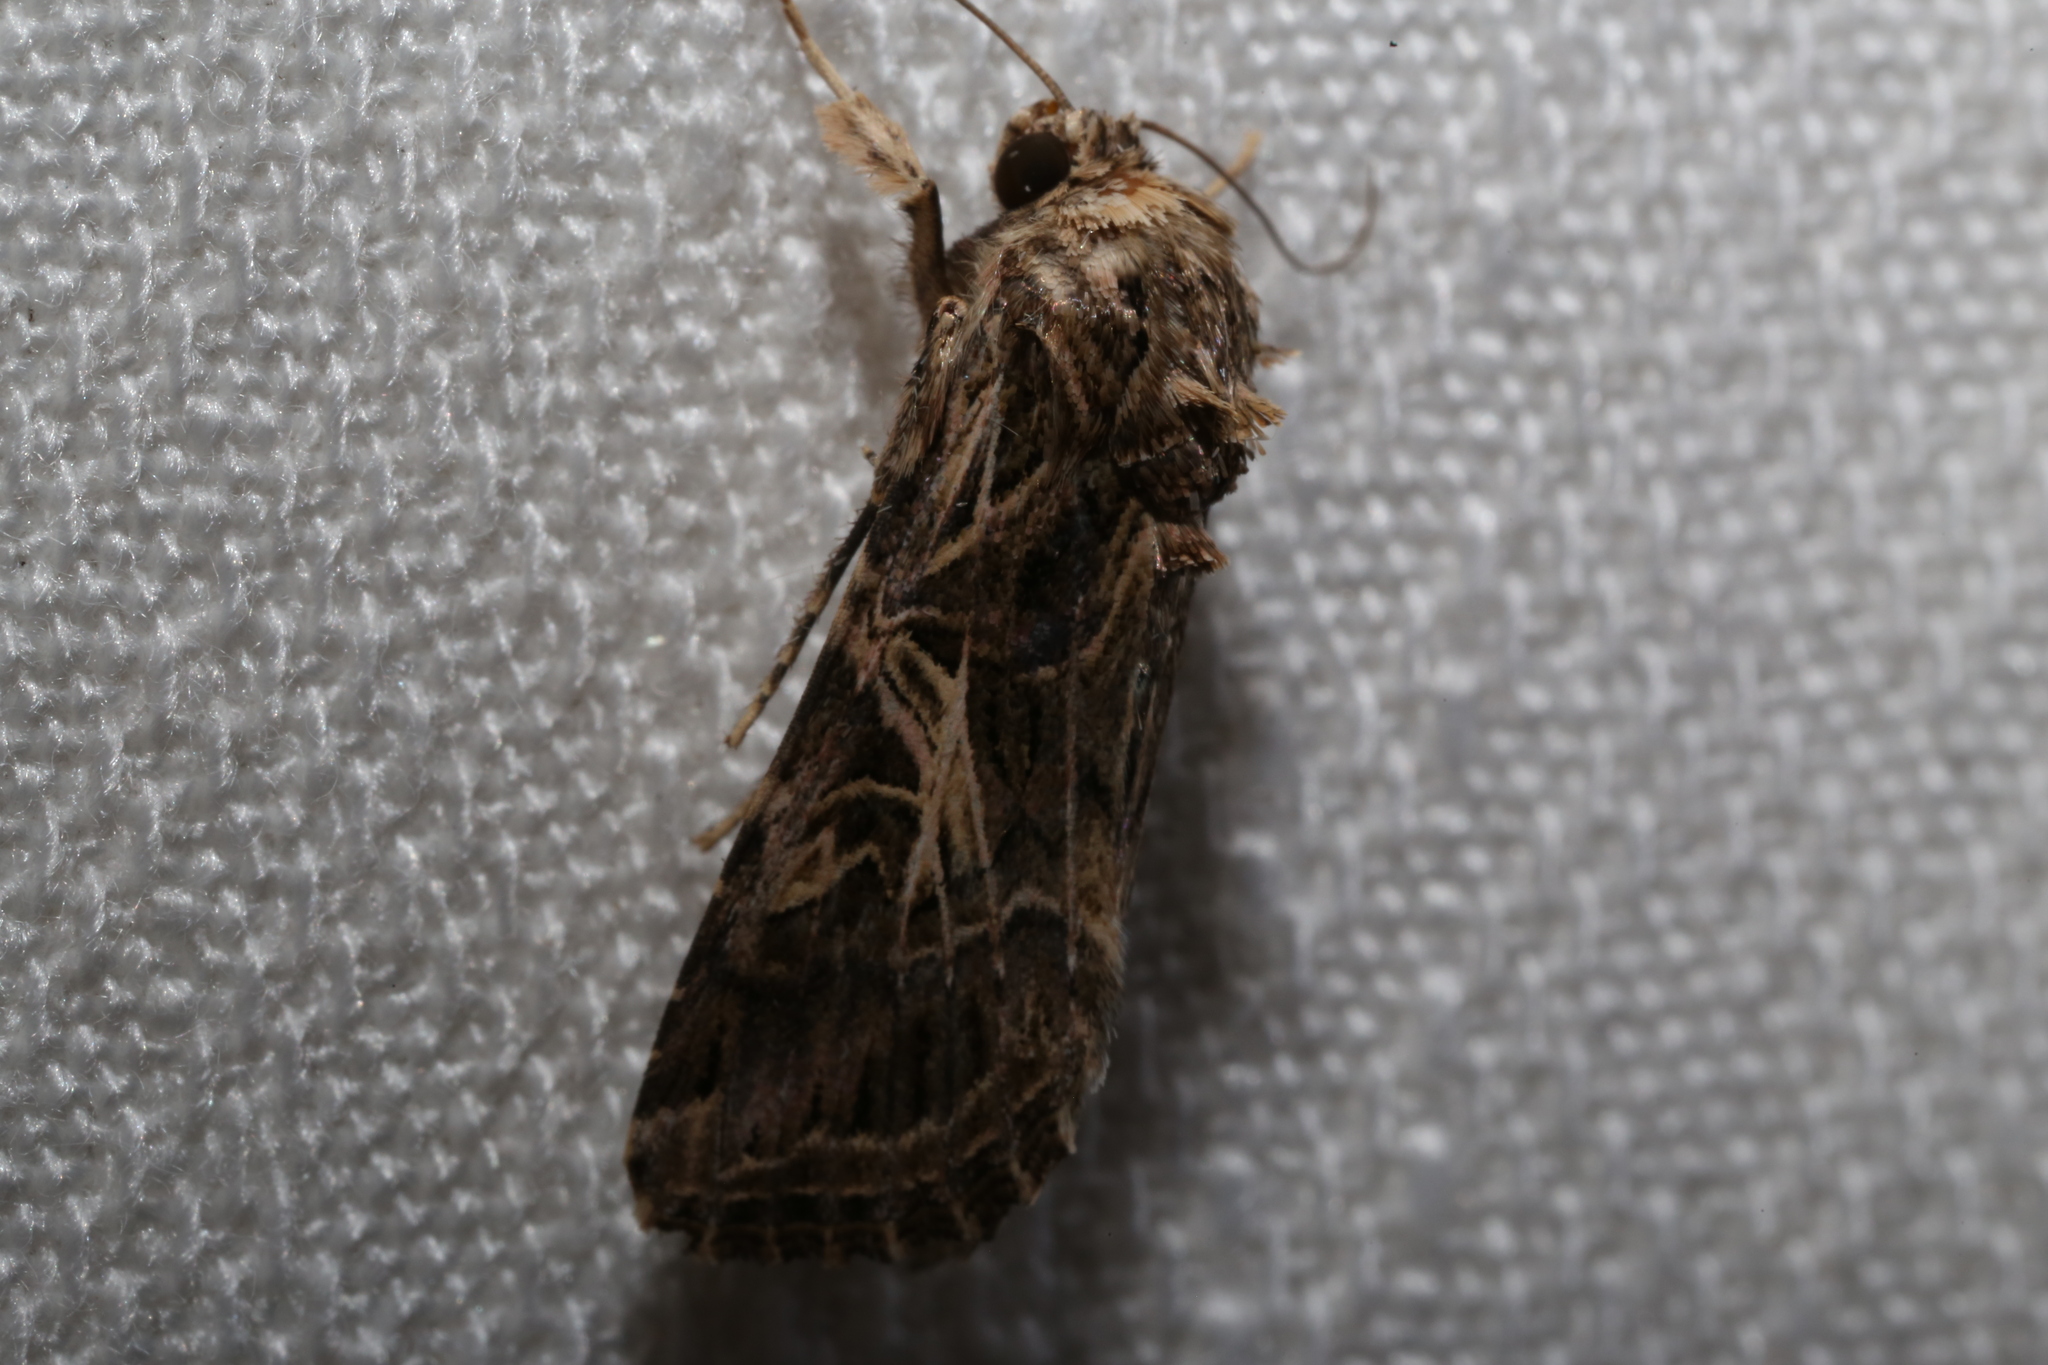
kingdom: Animalia
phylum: Arthropoda
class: Insecta
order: Lepidoptera
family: Noctuidae
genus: Spodoptera
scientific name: Spodoptera litura
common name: Asian cotton leafworm
